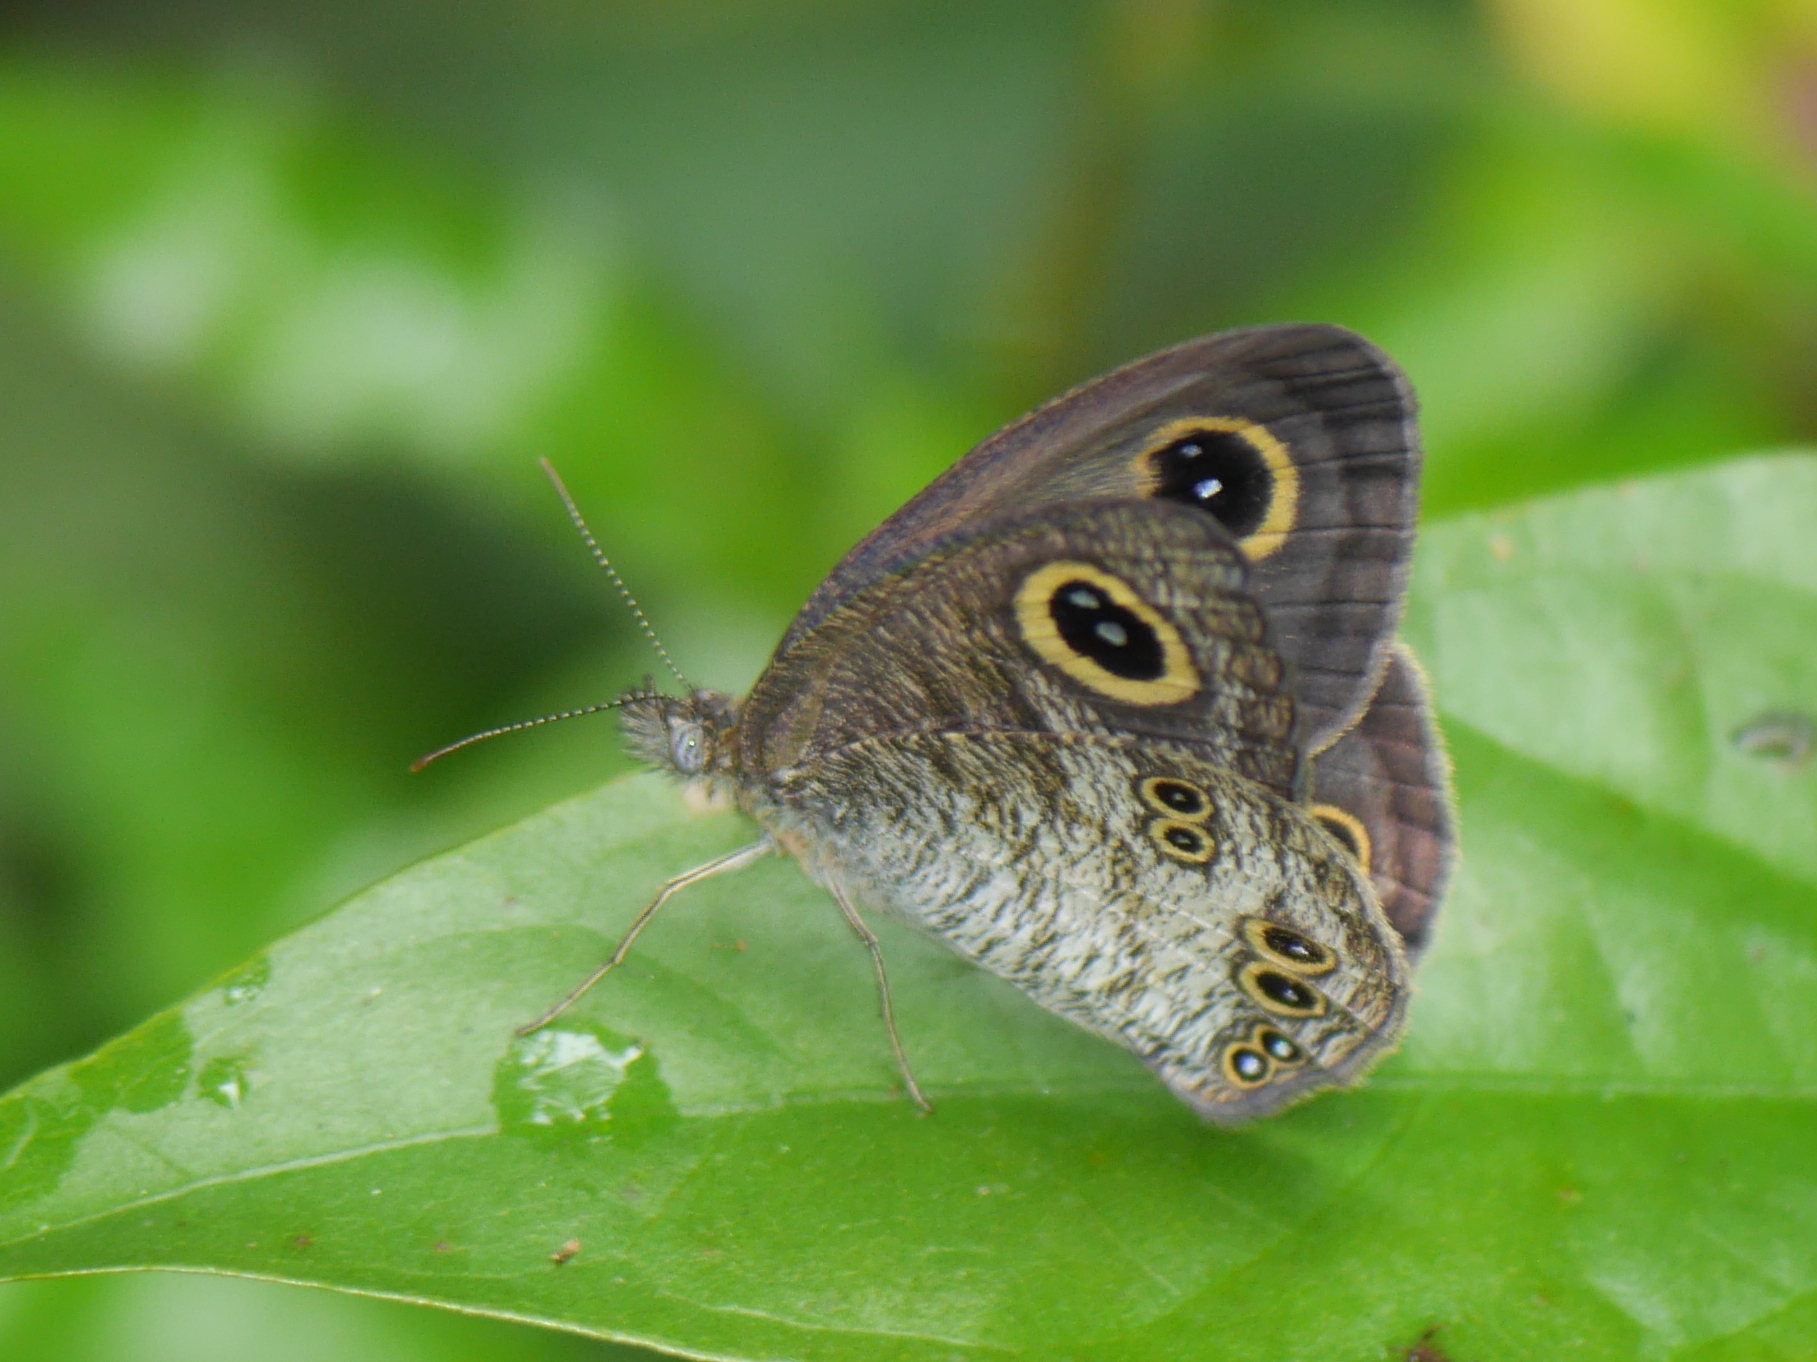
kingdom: Animalia
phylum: Arthropoda
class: Insecta
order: Lepidoptera
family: Nymphalidae
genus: Ypthima
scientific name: Ypthima baldus
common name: Common five-ring
